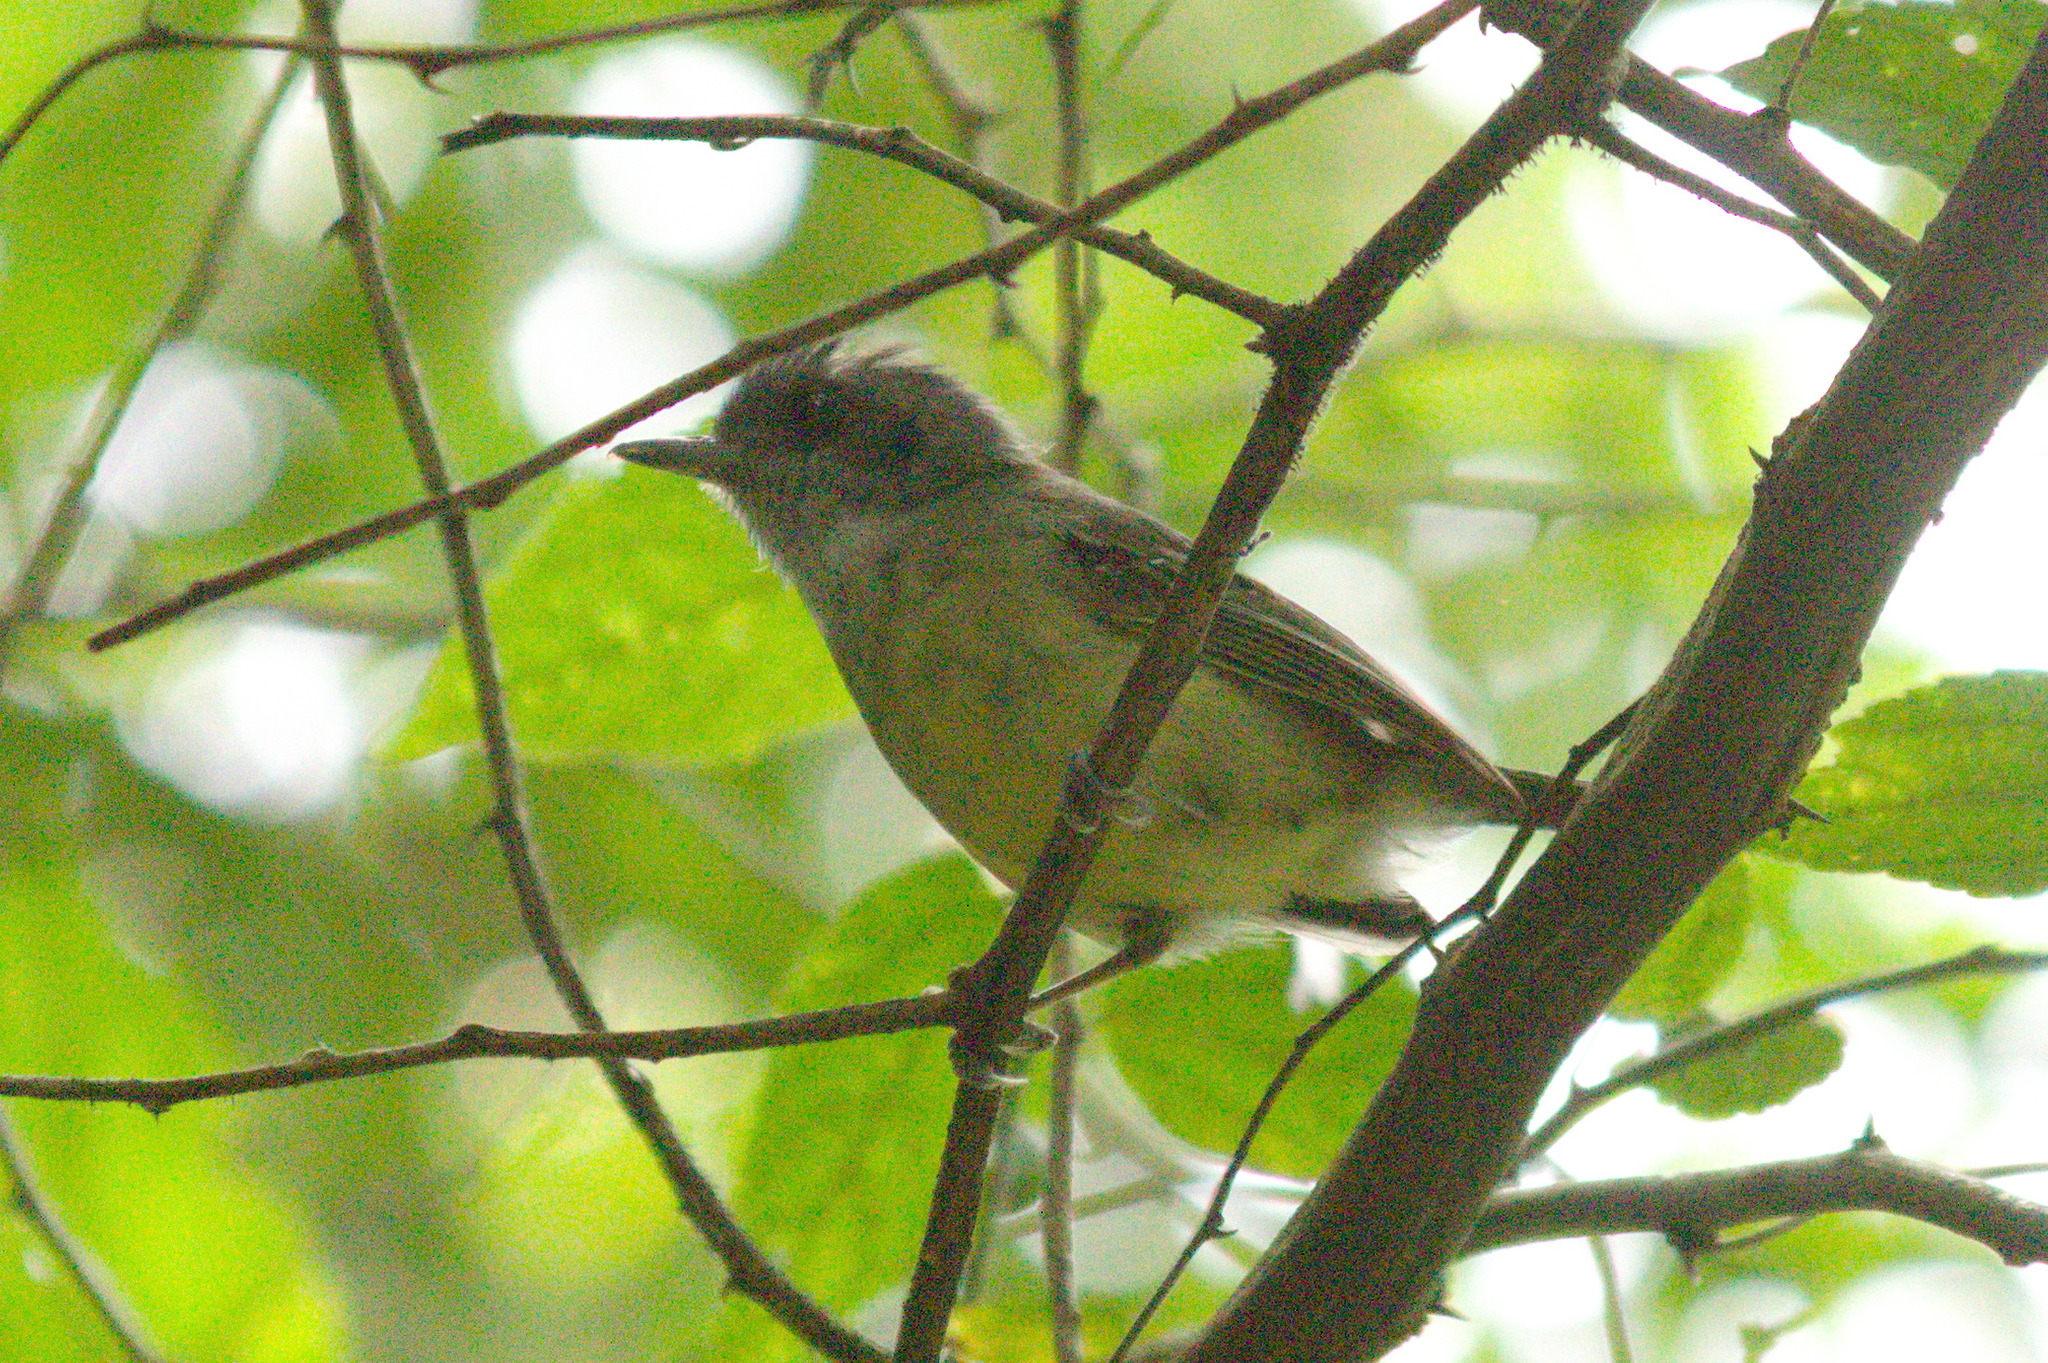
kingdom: Animalia
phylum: Chordata
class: Aves
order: Passeriformes
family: Thamnophilidae
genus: Dysithamnus
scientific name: Dysithamnus mentalis
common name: Plain antvireo
